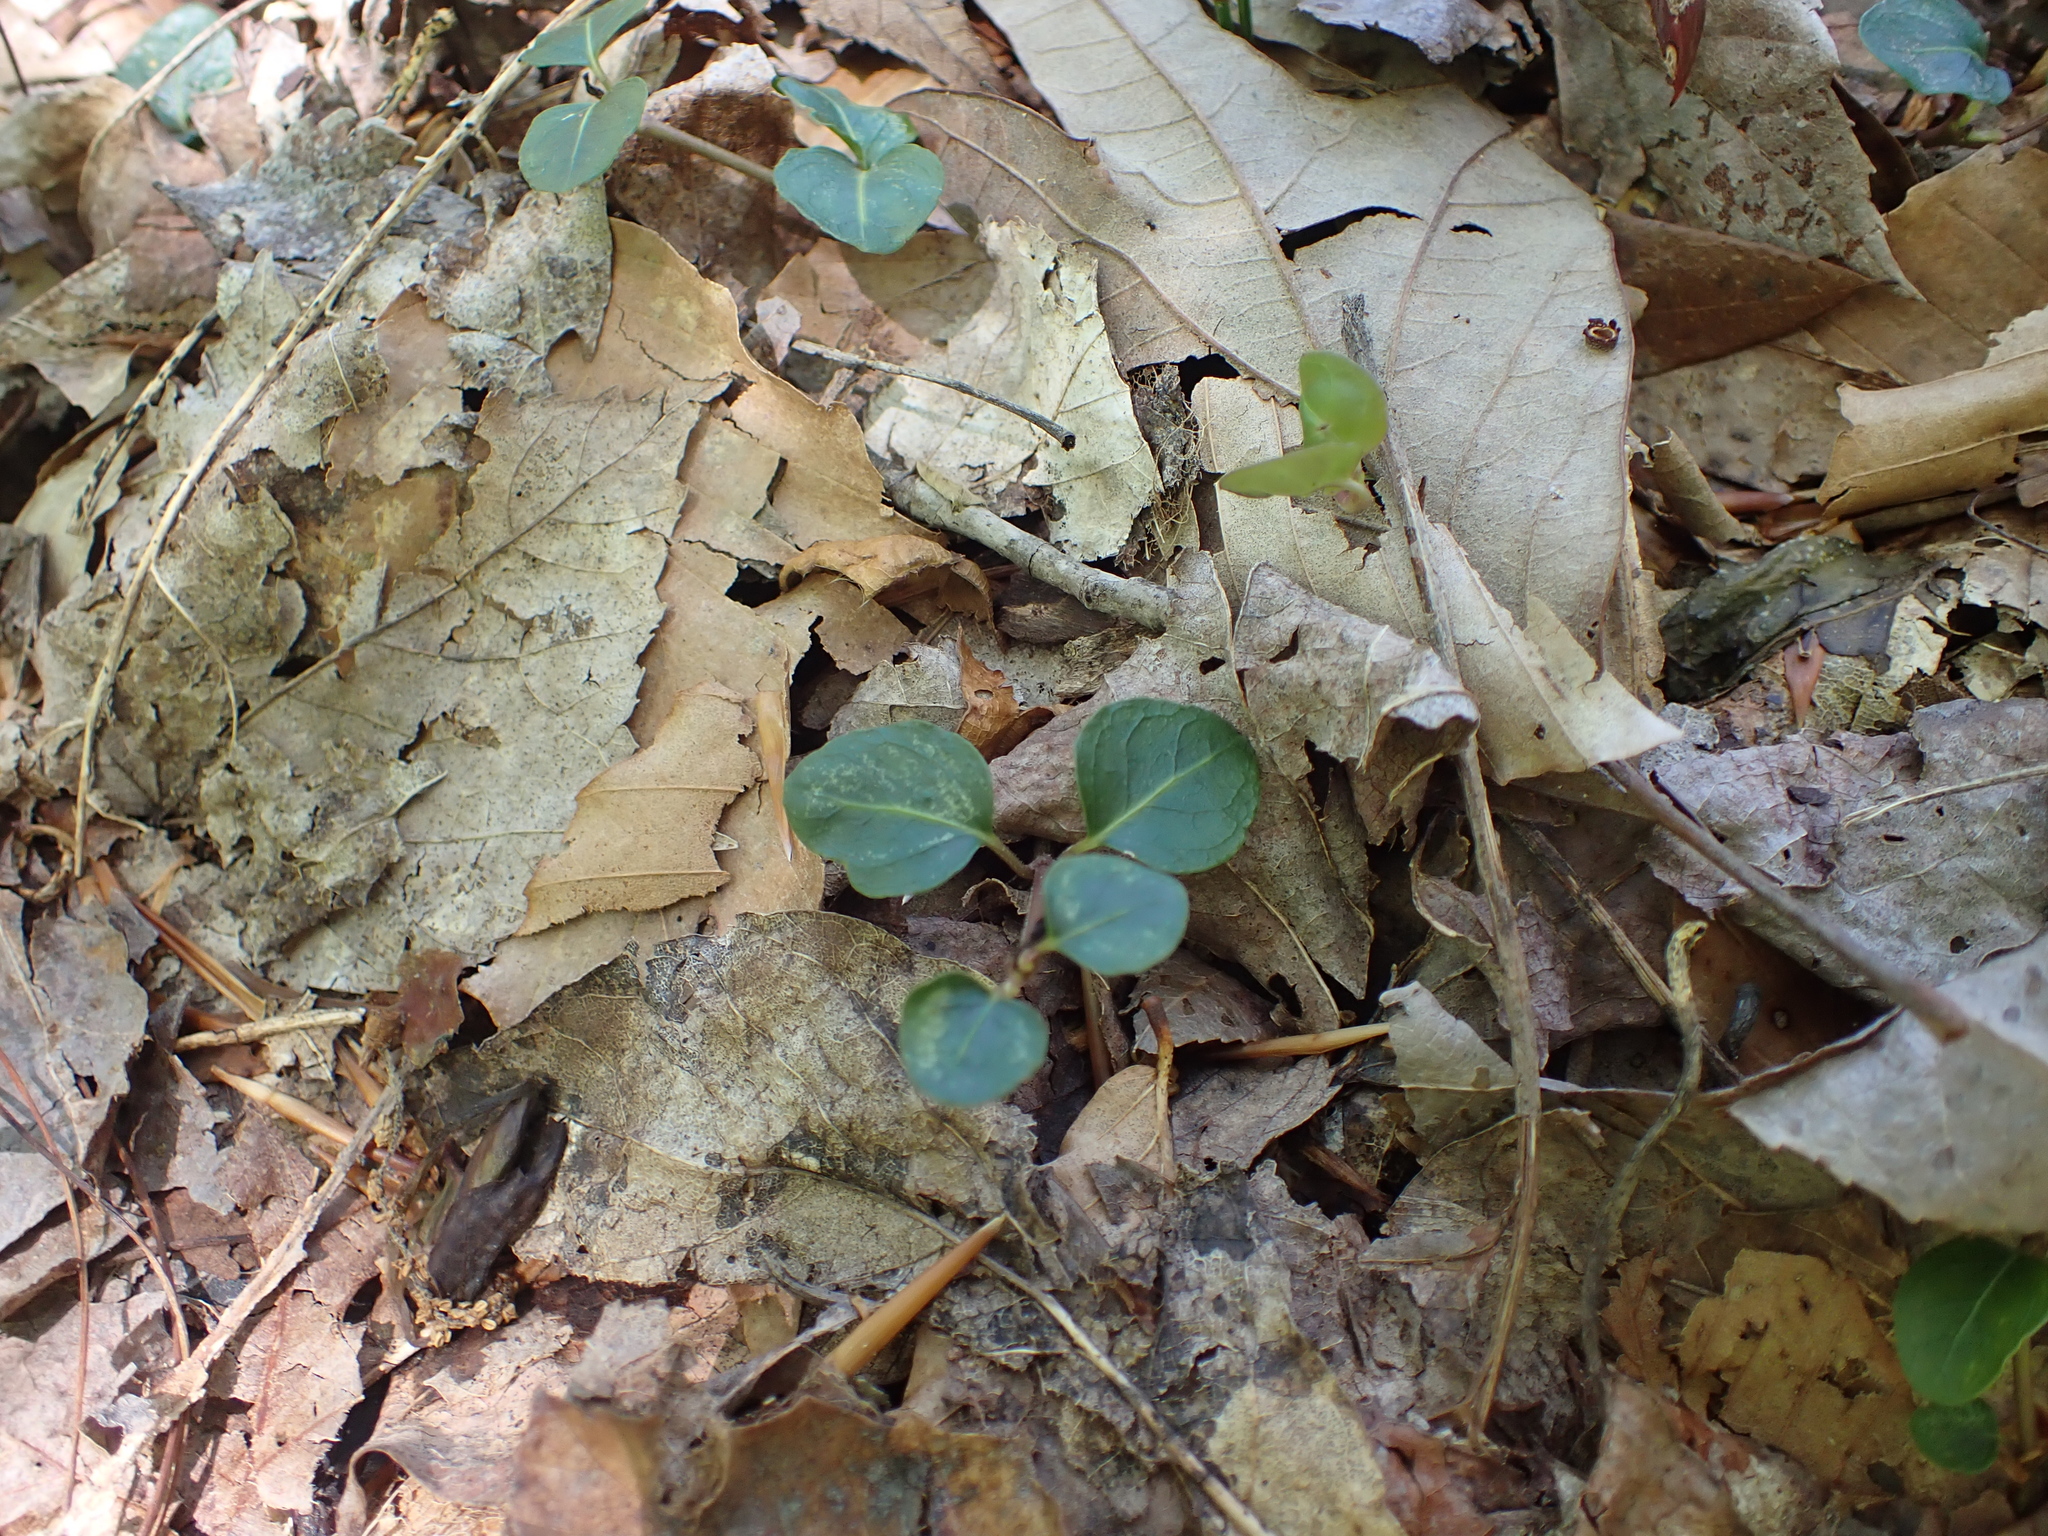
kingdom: Plantae
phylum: Tracheophyta
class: Magnoliopsida
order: Gentianales
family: Rubiaceae
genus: Mitchella
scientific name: Mitchella repens
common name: Partridge-berry
